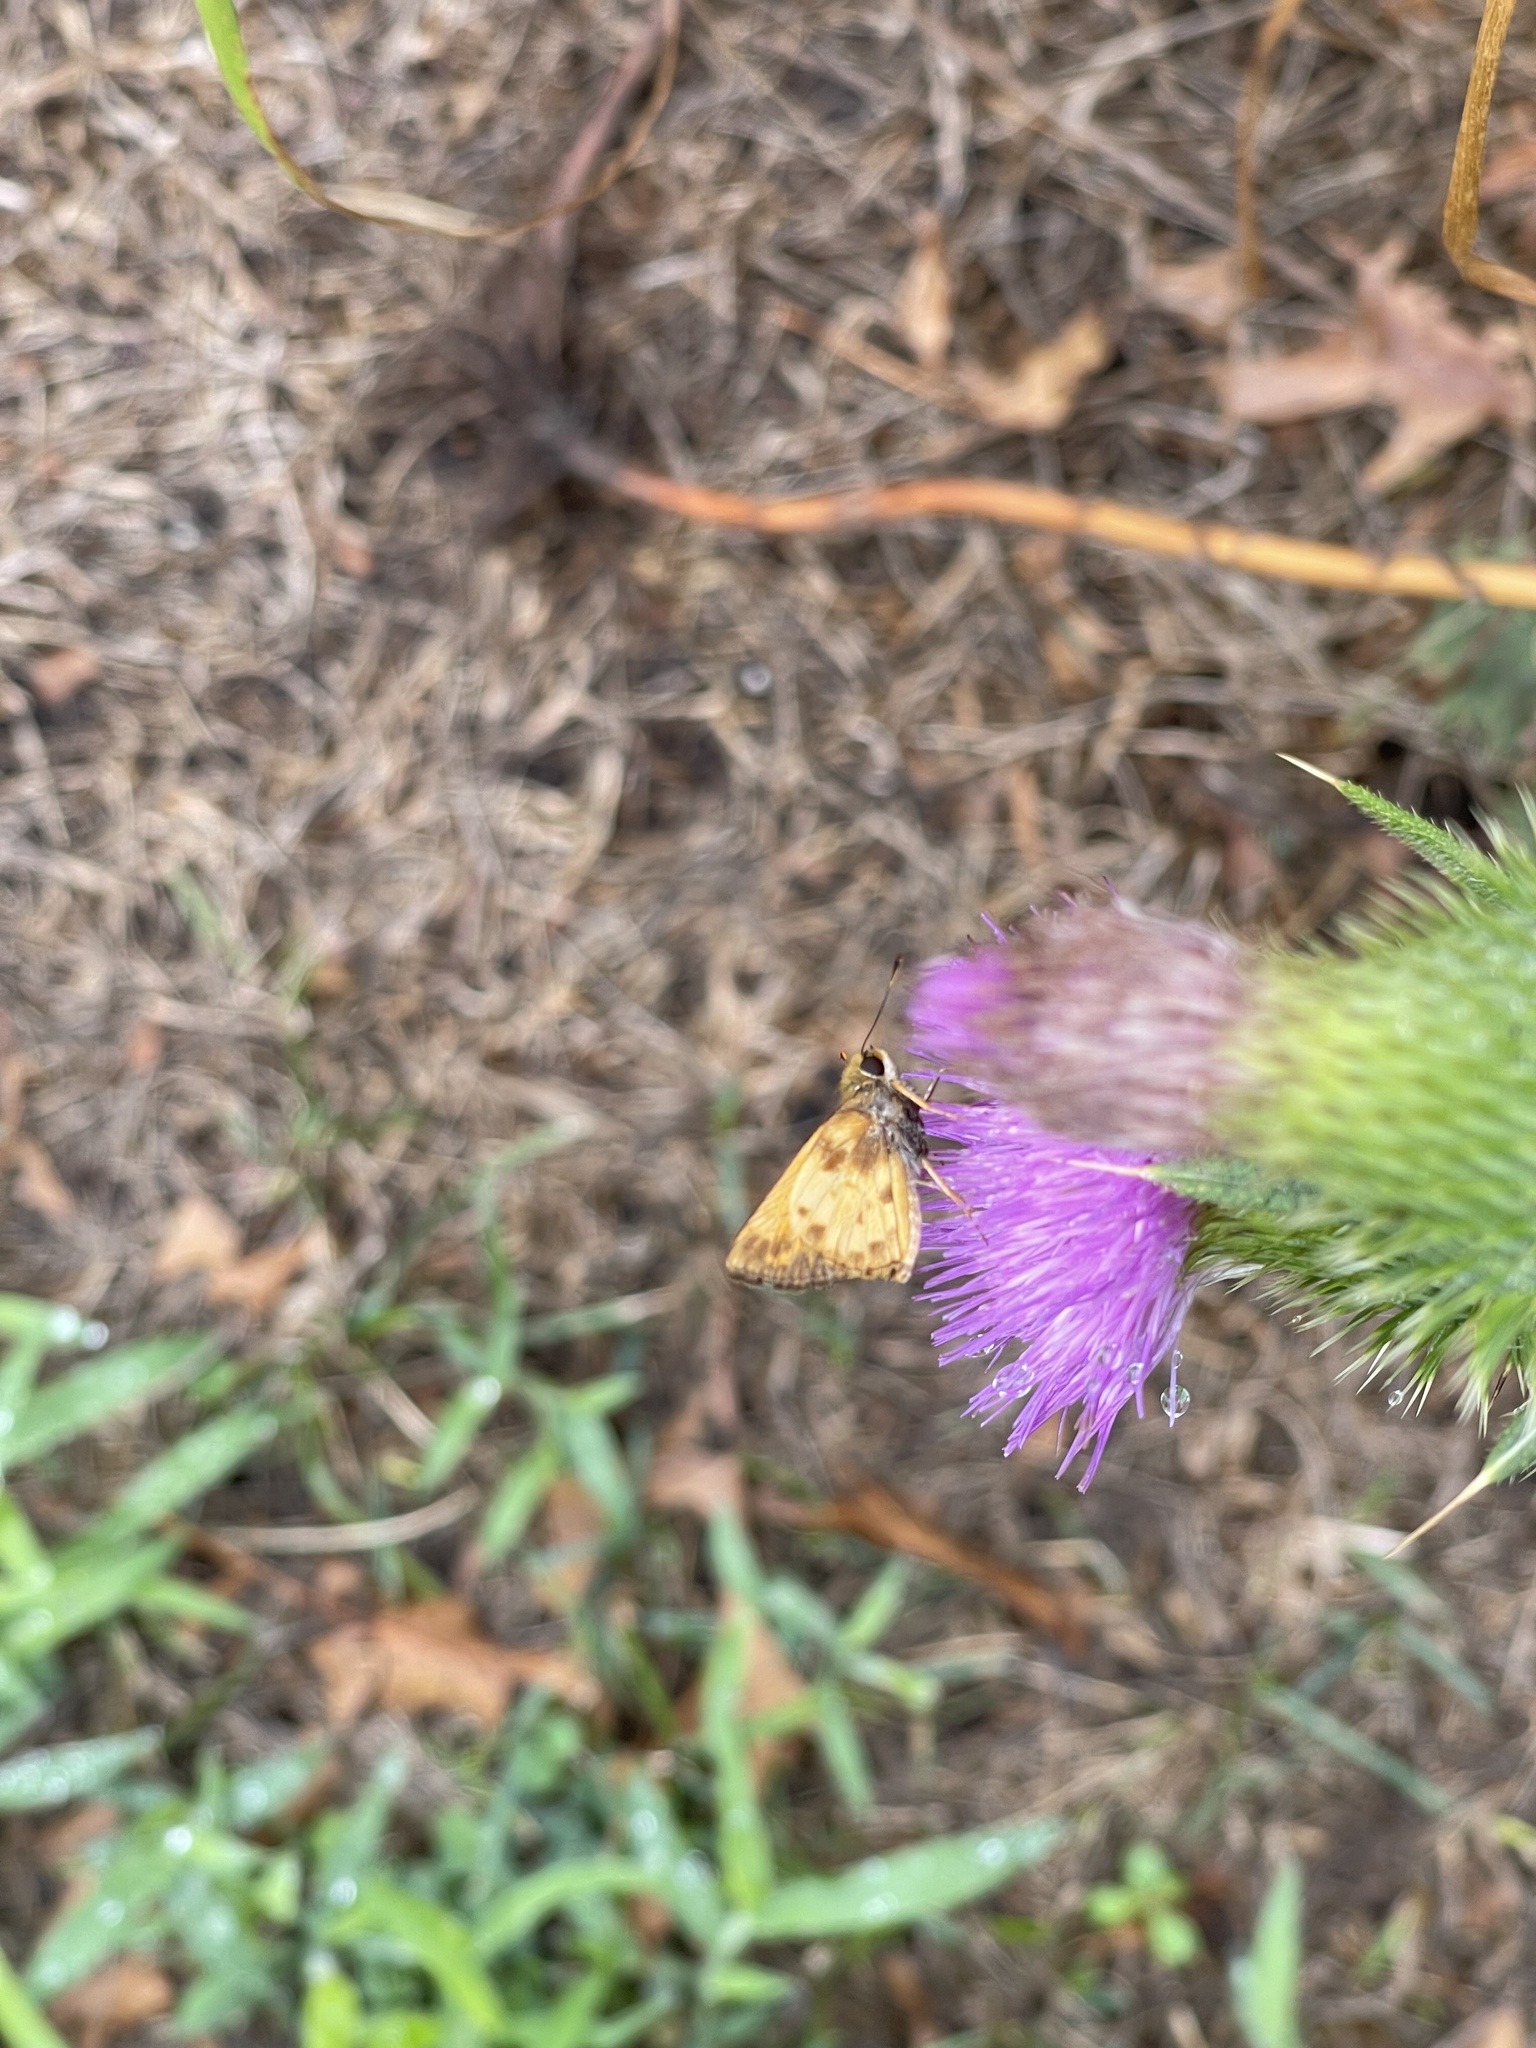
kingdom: Animalia
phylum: Arthropoda
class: Insecta
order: Lepidoptera
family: Hesperiidae
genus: Lon
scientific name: Lon zabulon
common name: Zabulon skipper
